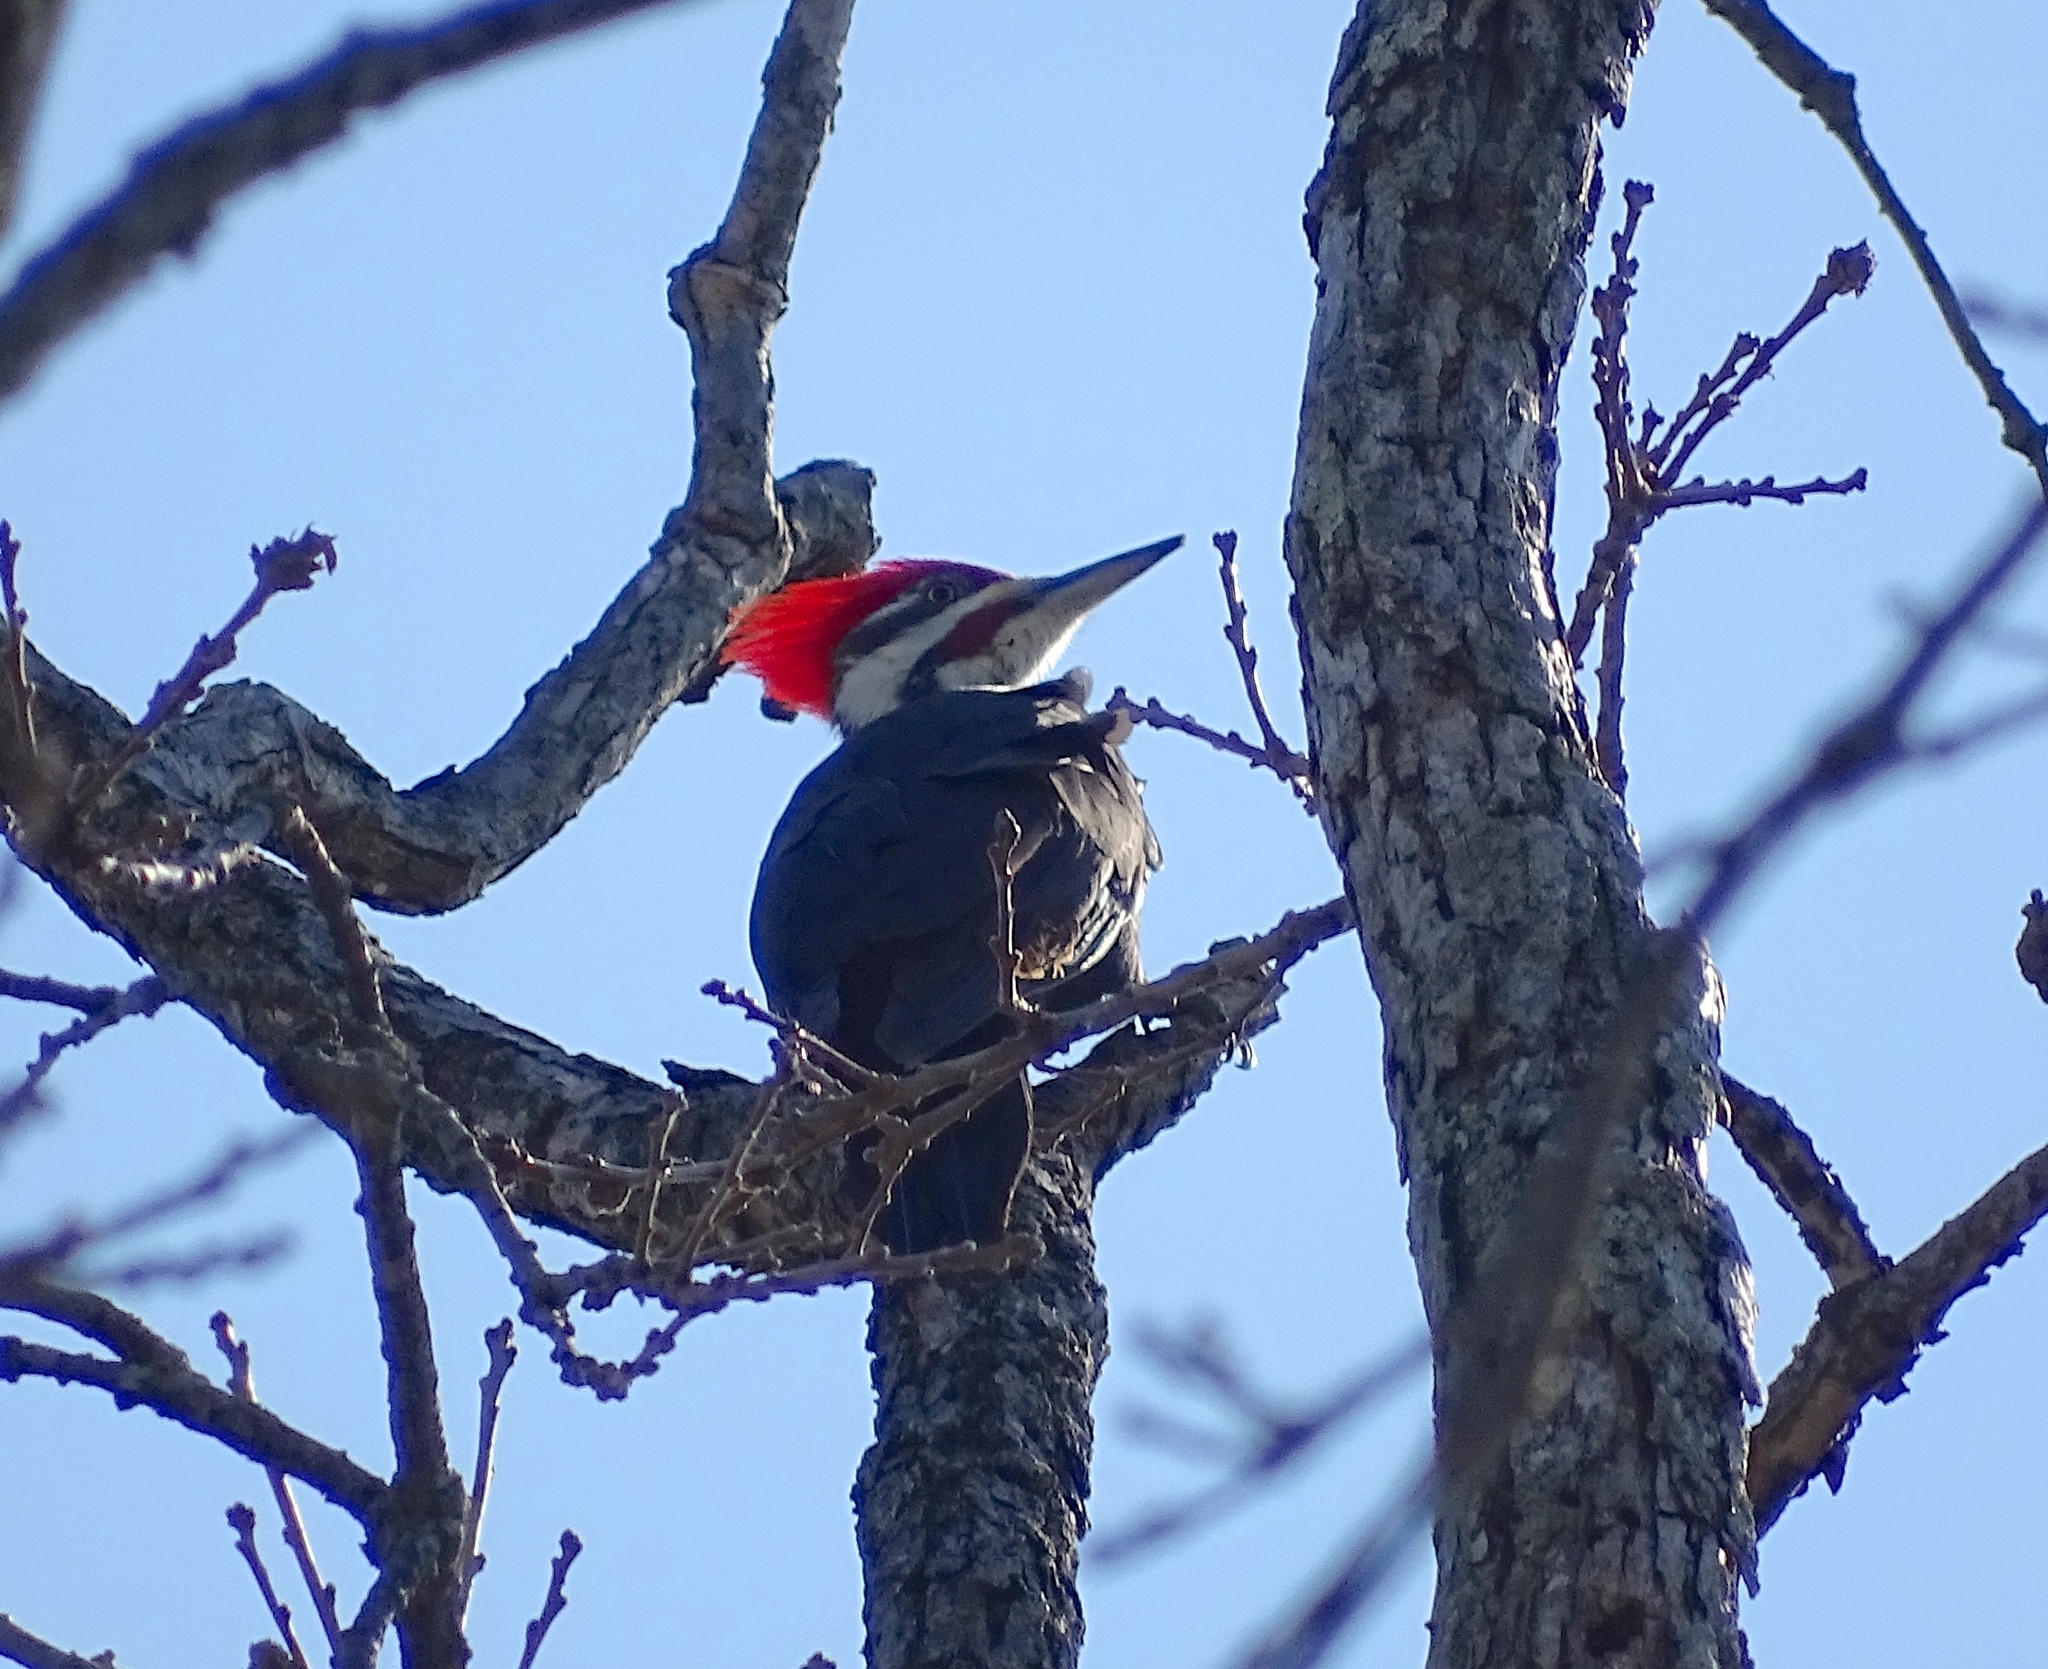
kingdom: Animalia
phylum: Chordata
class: Aves
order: Piciformes
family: Picidae
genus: Dryocopus
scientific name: Dryocopus pileatus
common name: Pileated woodpecker
